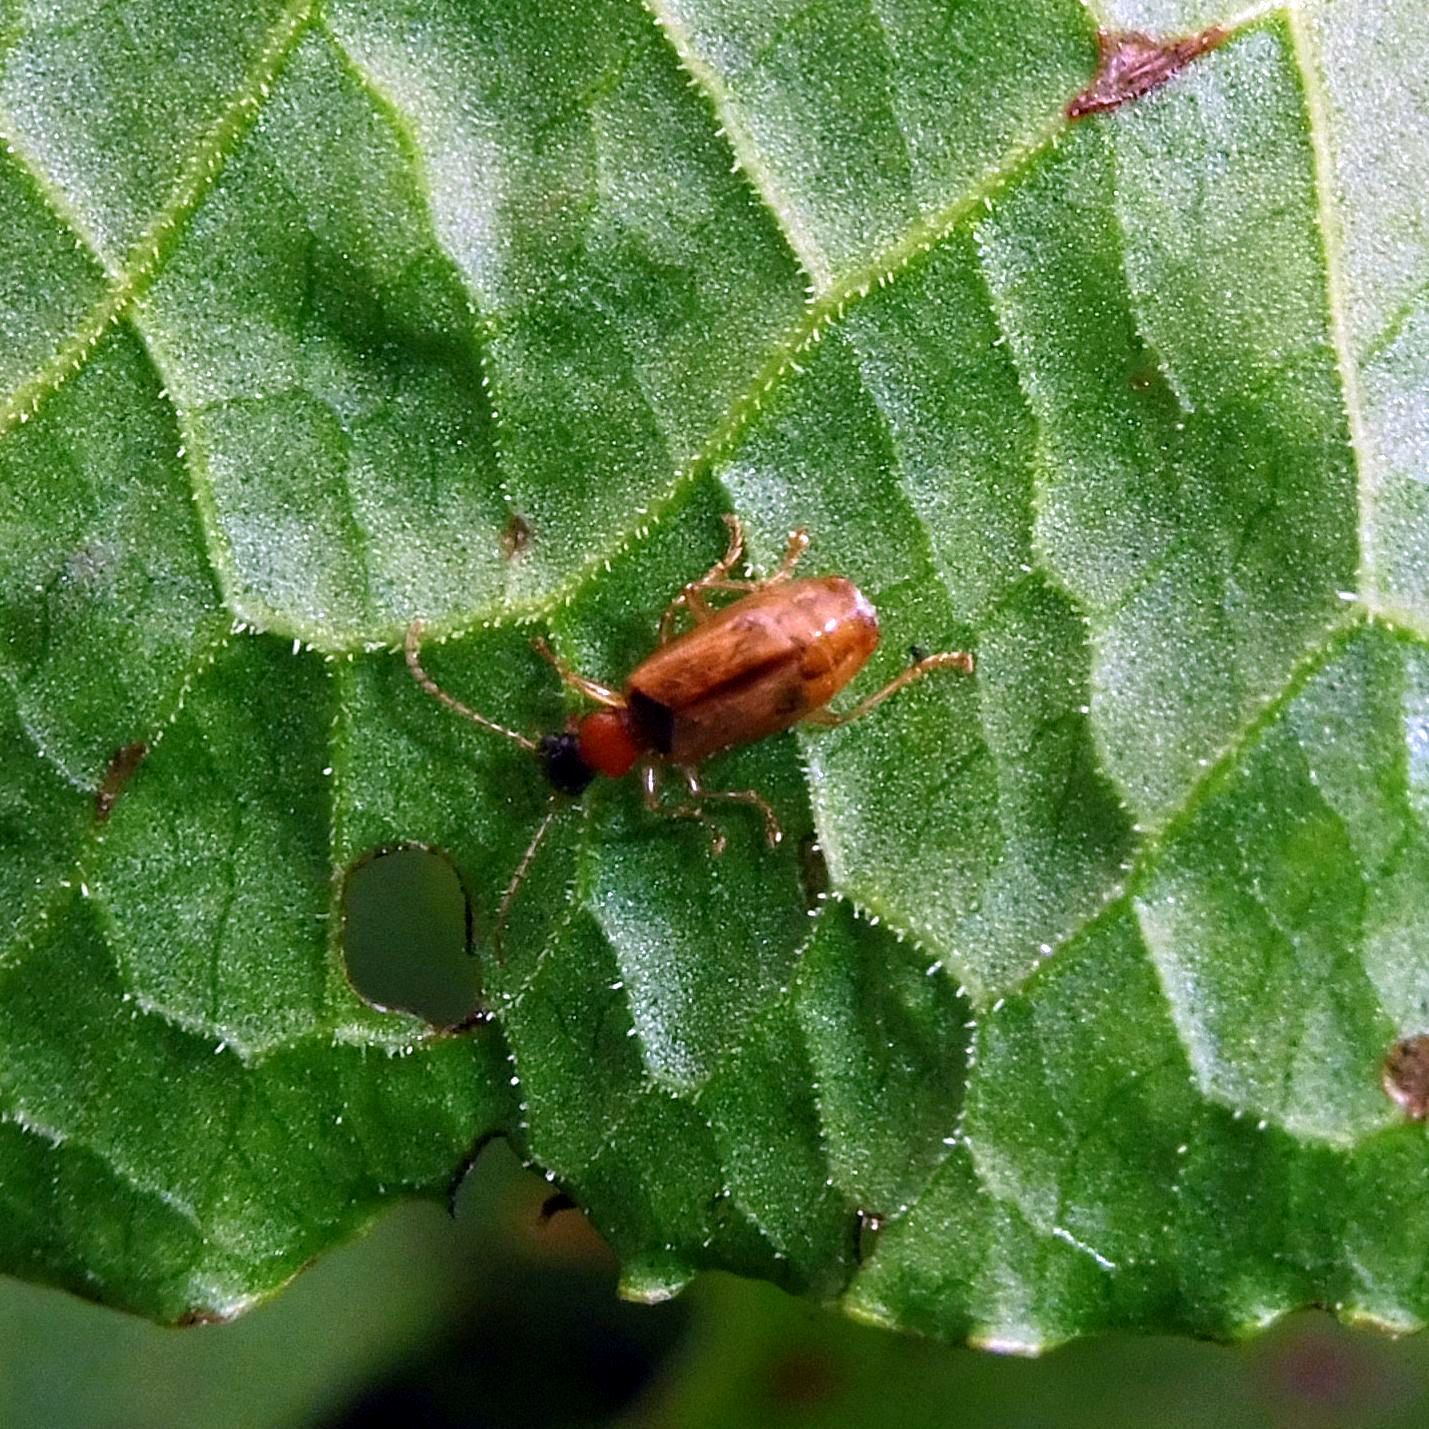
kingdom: Animalia
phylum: Arthropoda
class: Insecta
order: Coleoptera
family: Carabidae
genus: Demetrias
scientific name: Demetrias atricapillus
